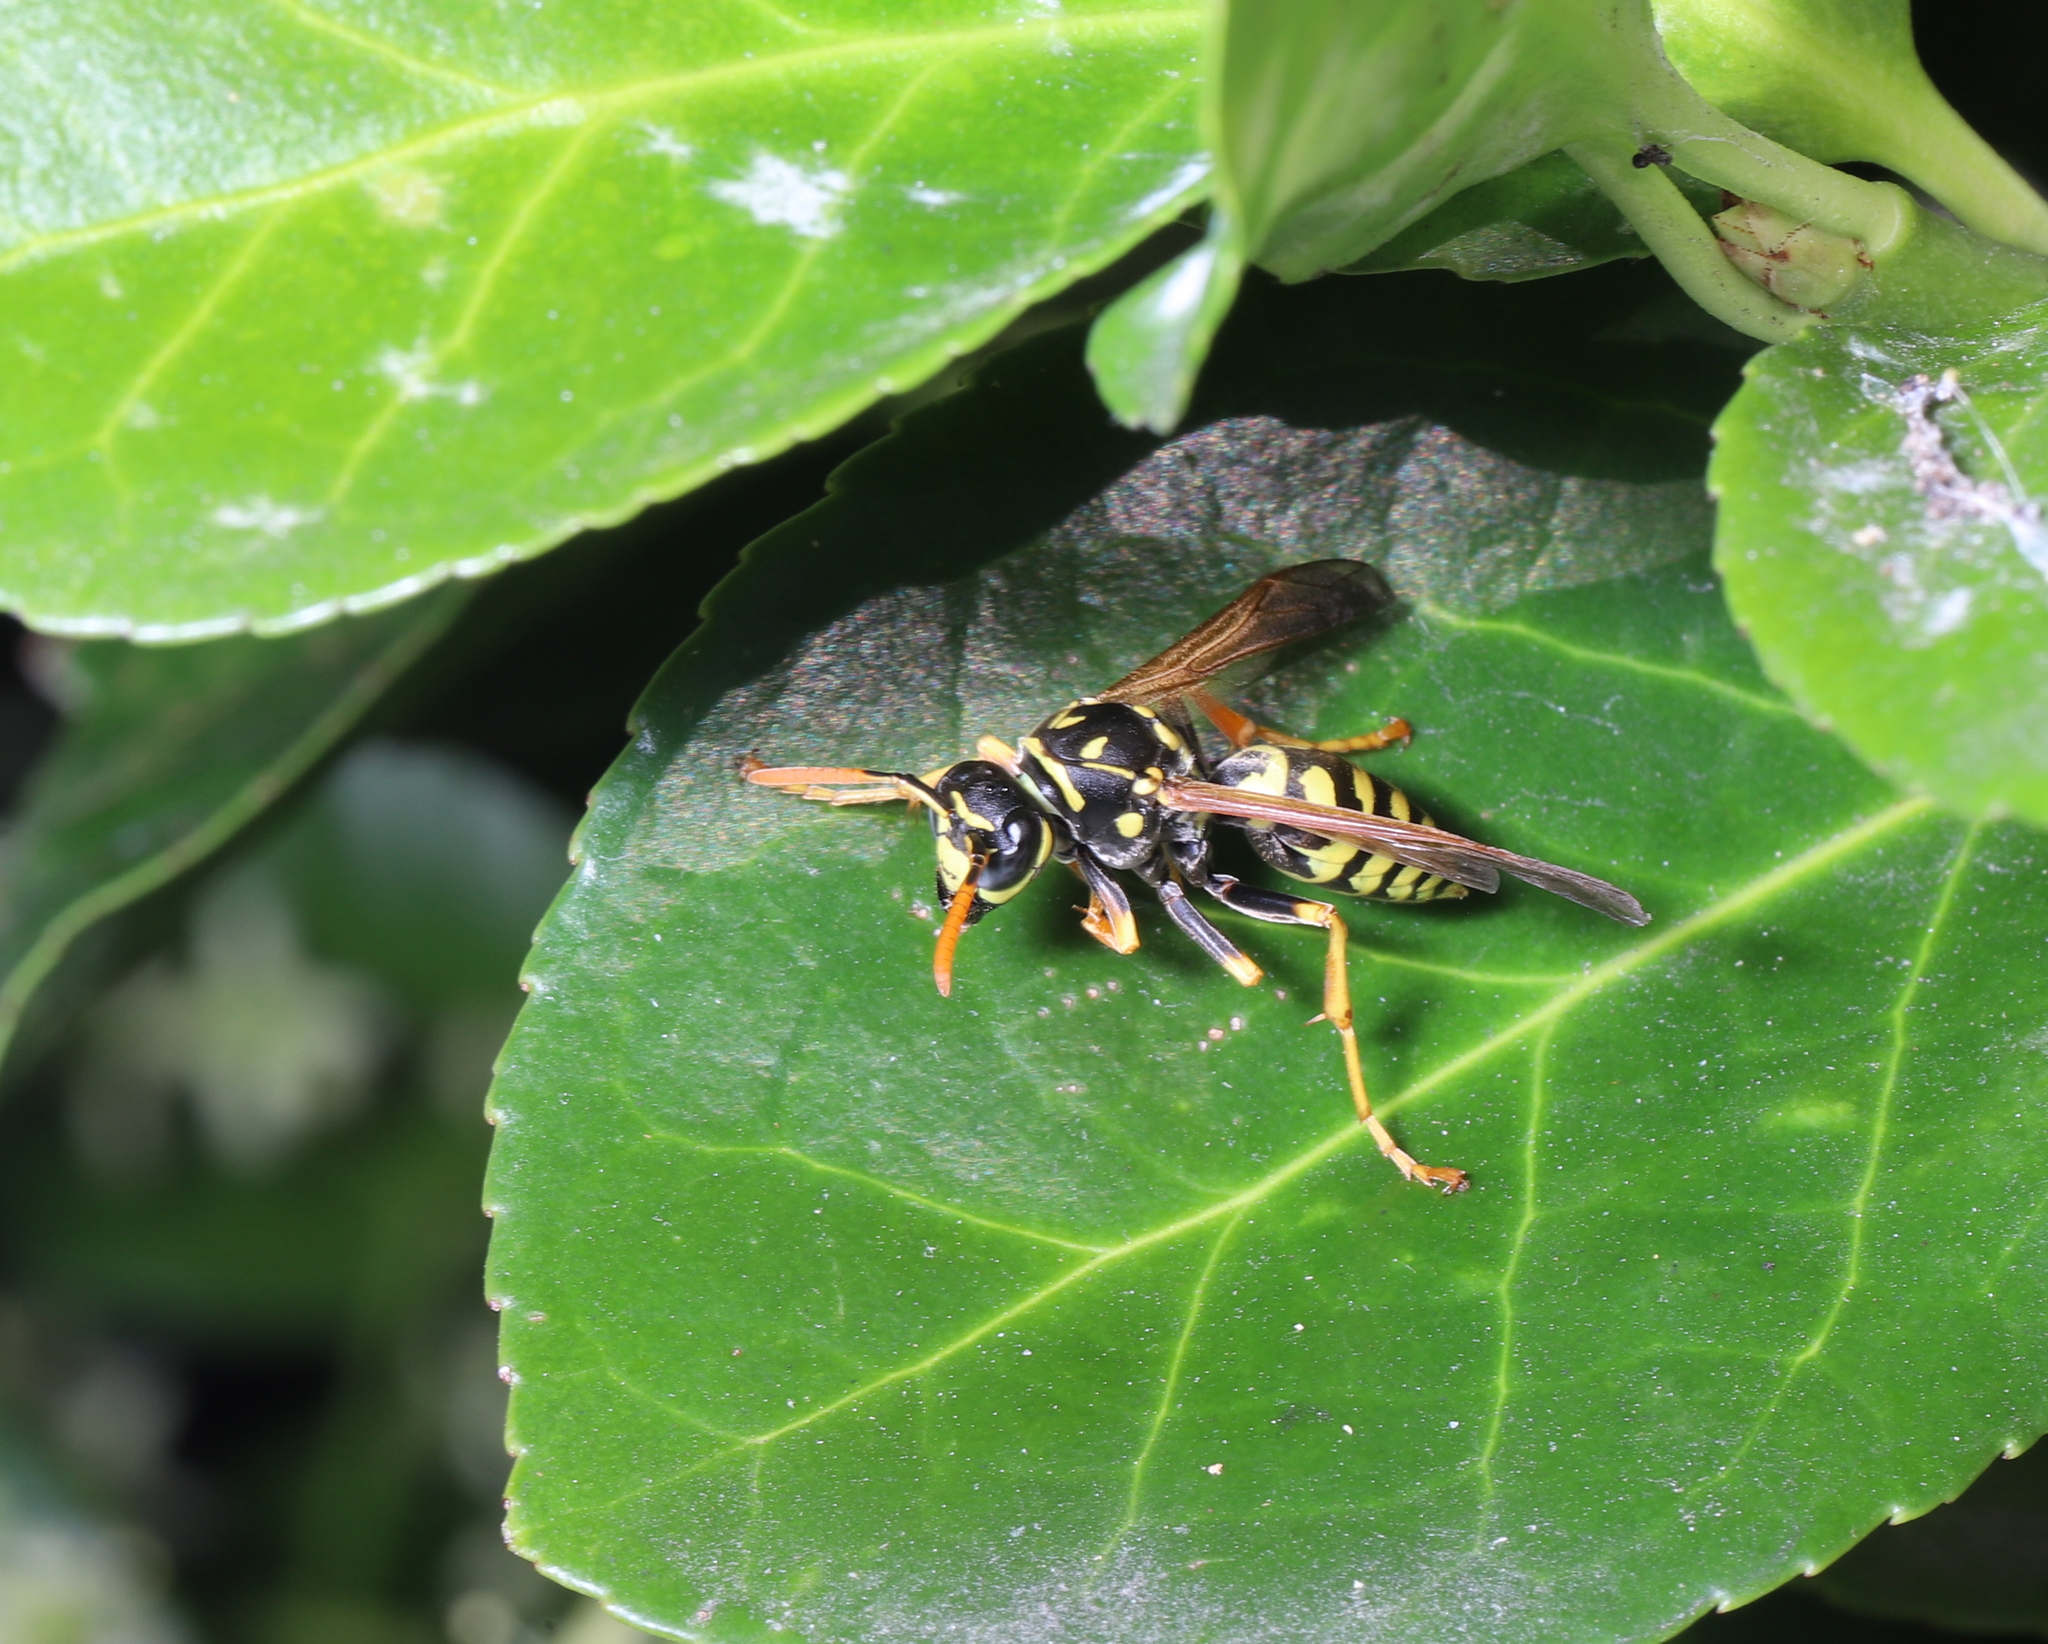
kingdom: Animalia
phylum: Arthropoda
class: Insecta
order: Hymenoptera
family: Eumenidae
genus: Polistes
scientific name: Polistes dominula
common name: Paper wasp
